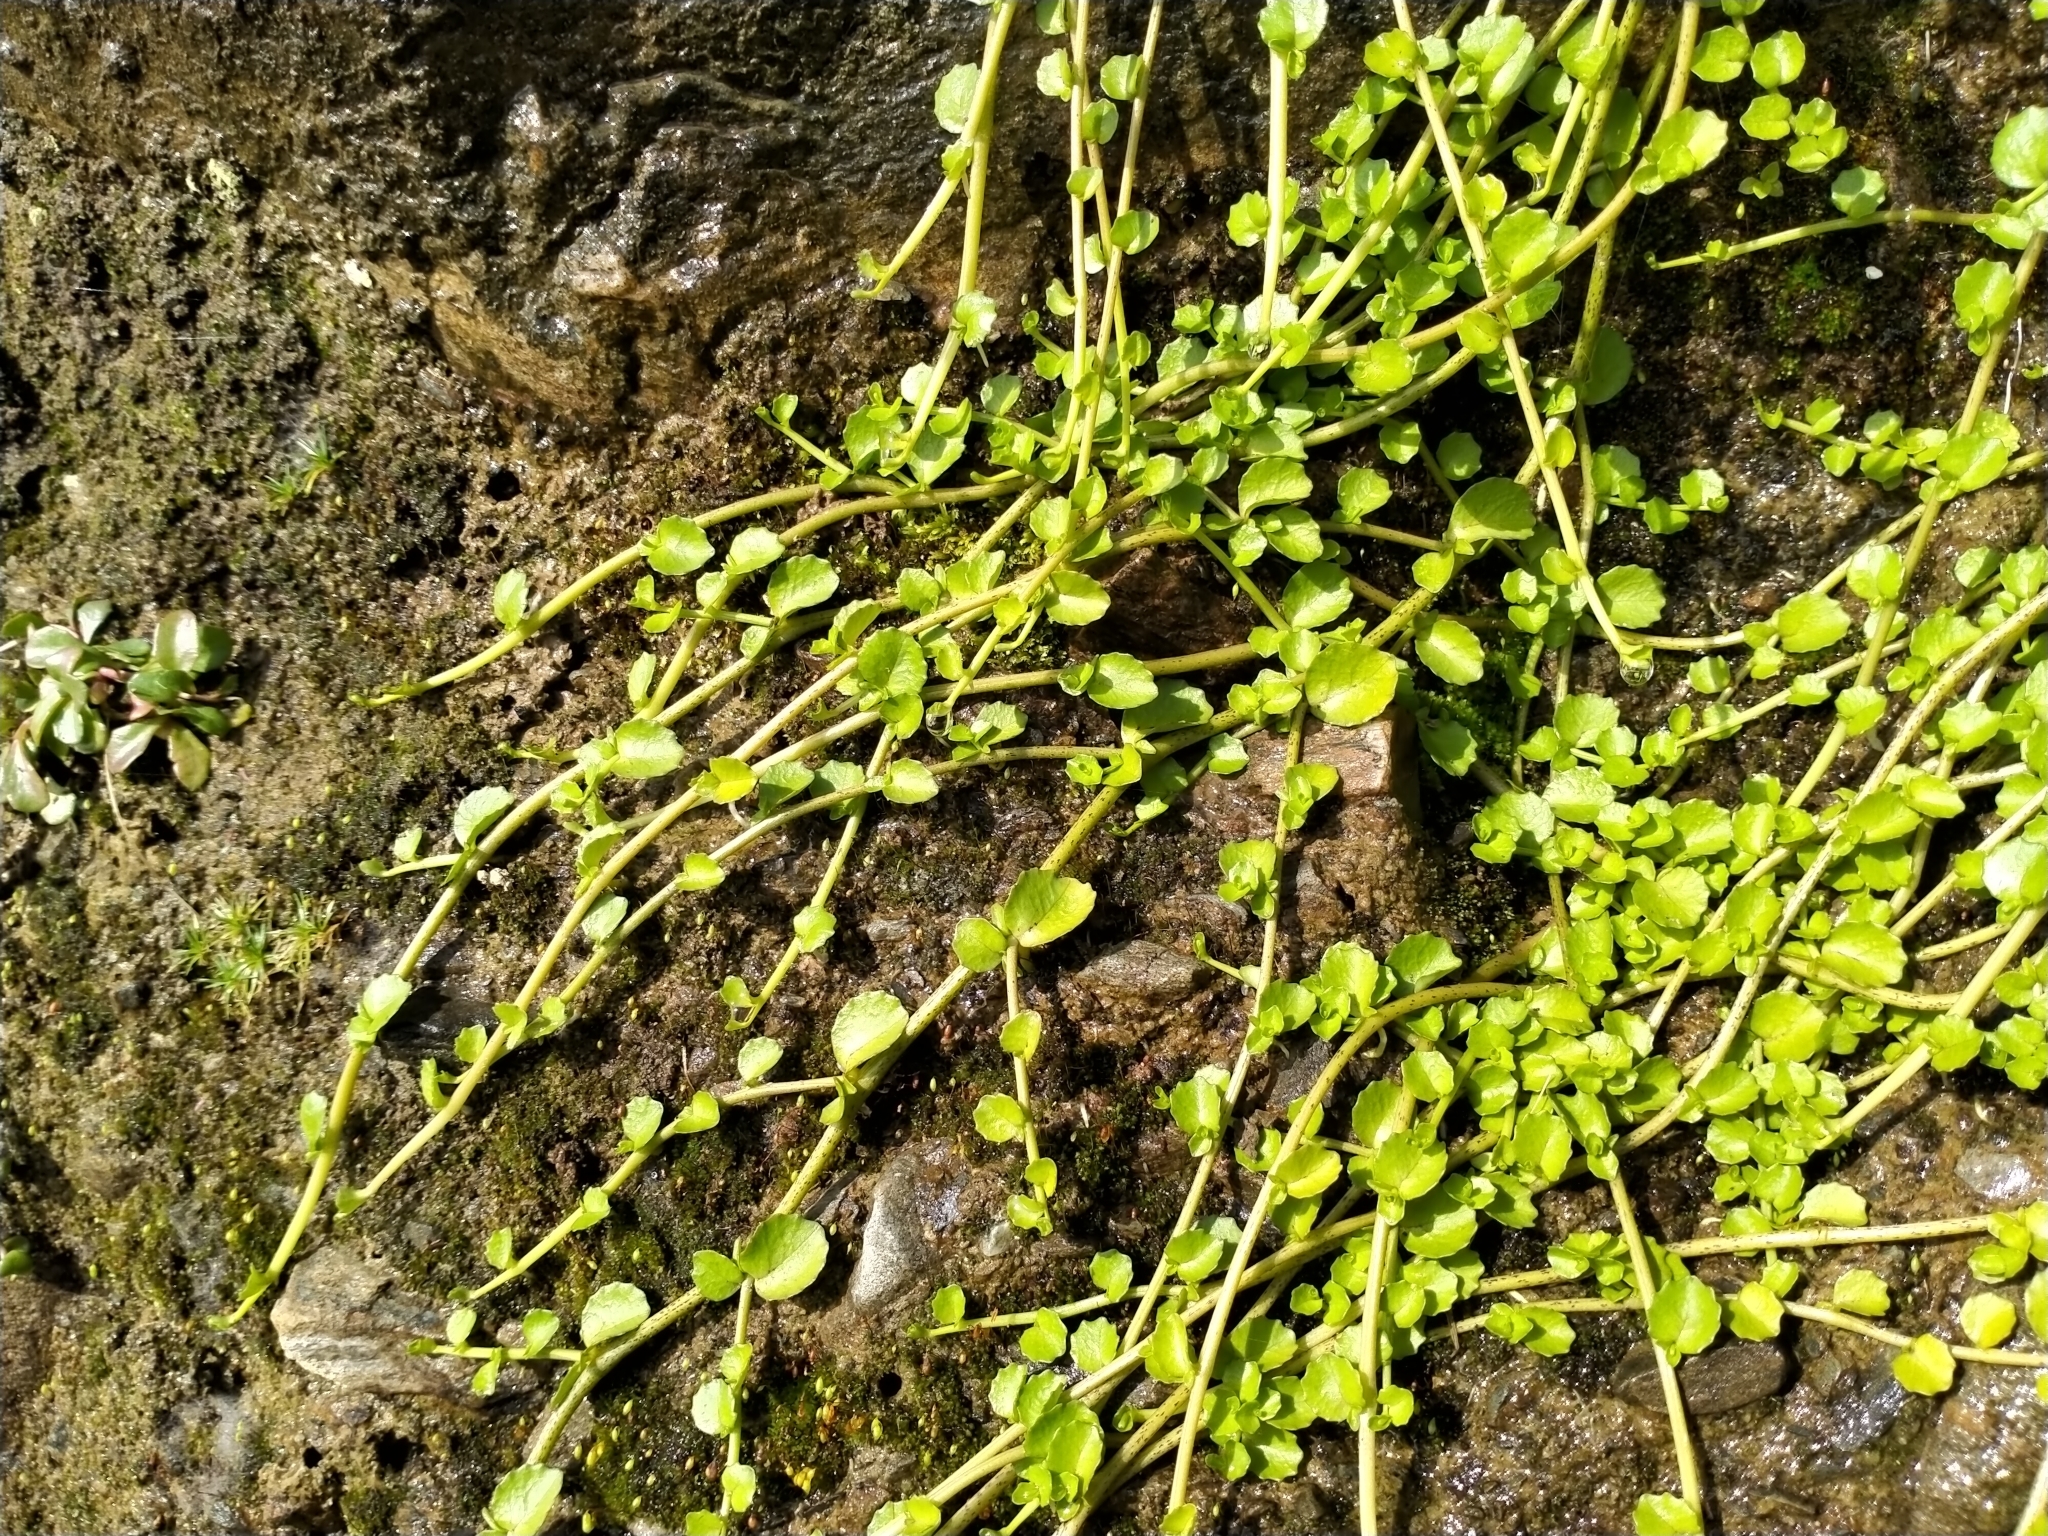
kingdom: Plantae
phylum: Tracheophyta
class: Magnoliopsida
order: Asterales
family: Campanulaceae
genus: Lobelia
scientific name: Lobelia angulata
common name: Lawn lobelia
